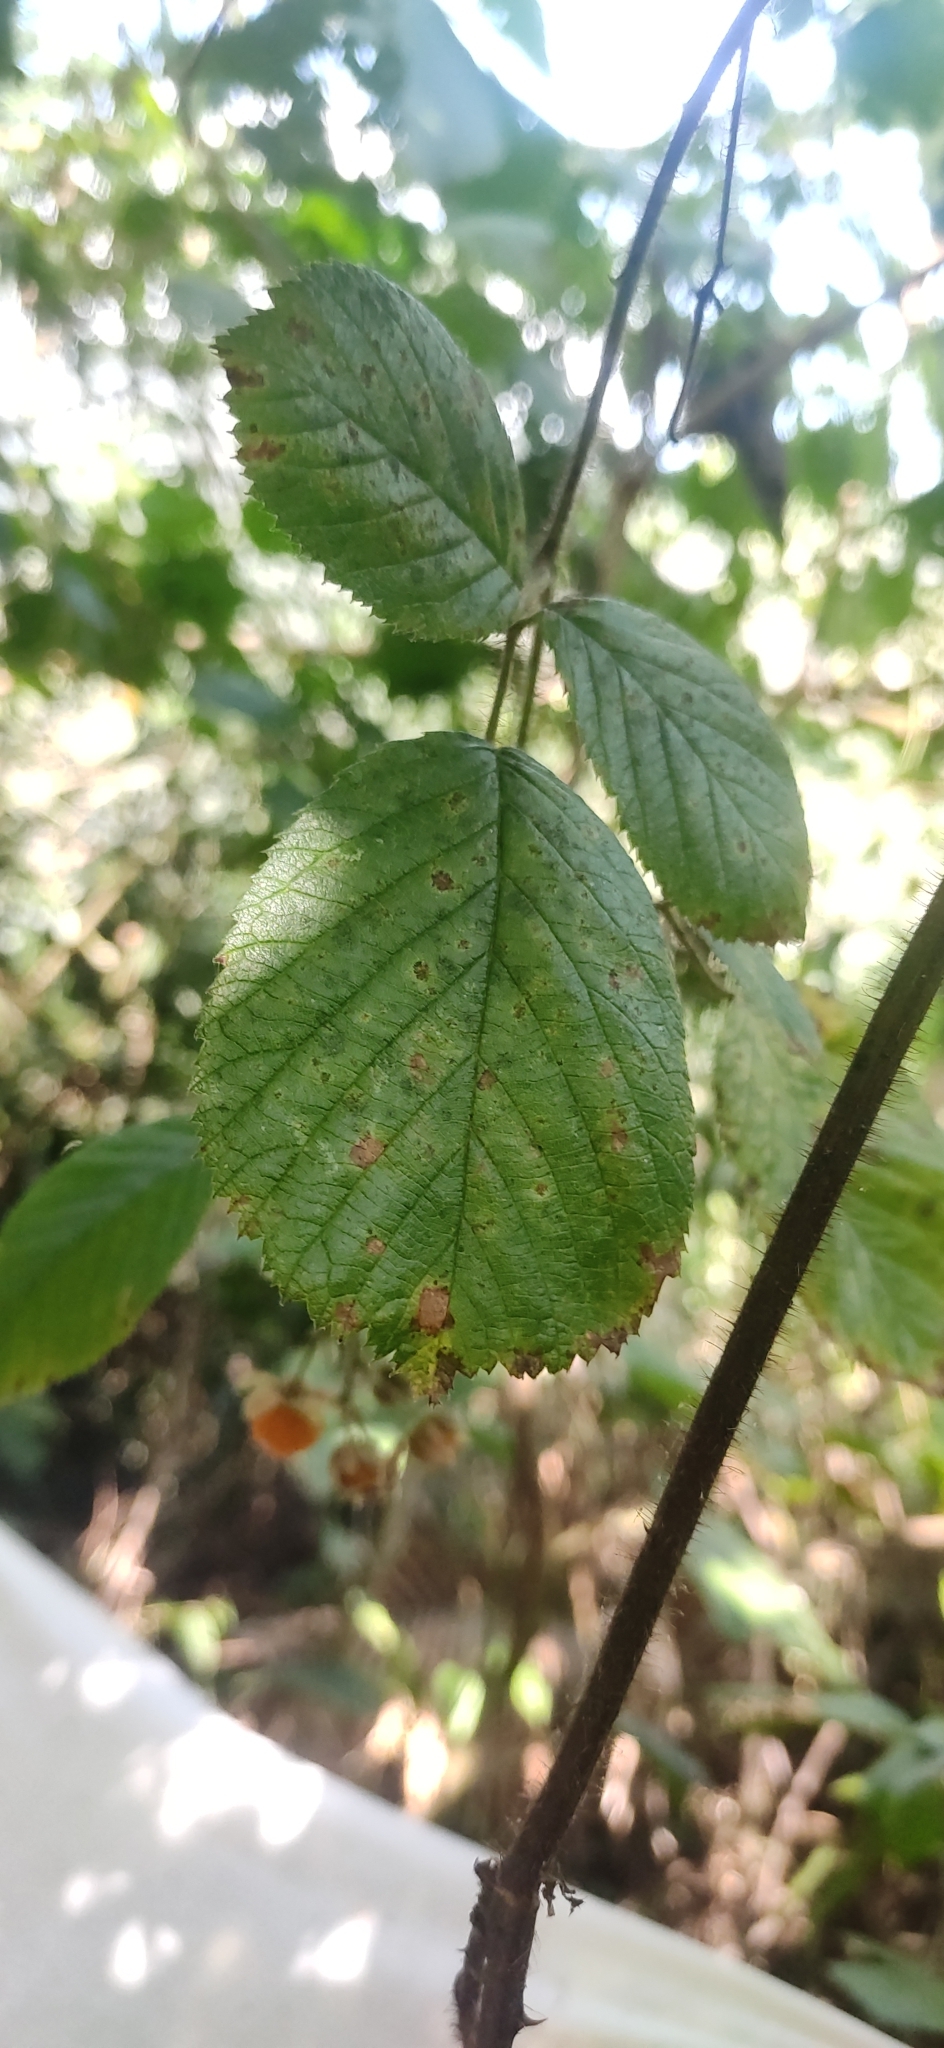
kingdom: Plantae
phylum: Tracheophyta
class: Magnoliopsida
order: Rosales
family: Rosaceae
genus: Rubus
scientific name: Rubus ellipticus
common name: Cheeseberry
